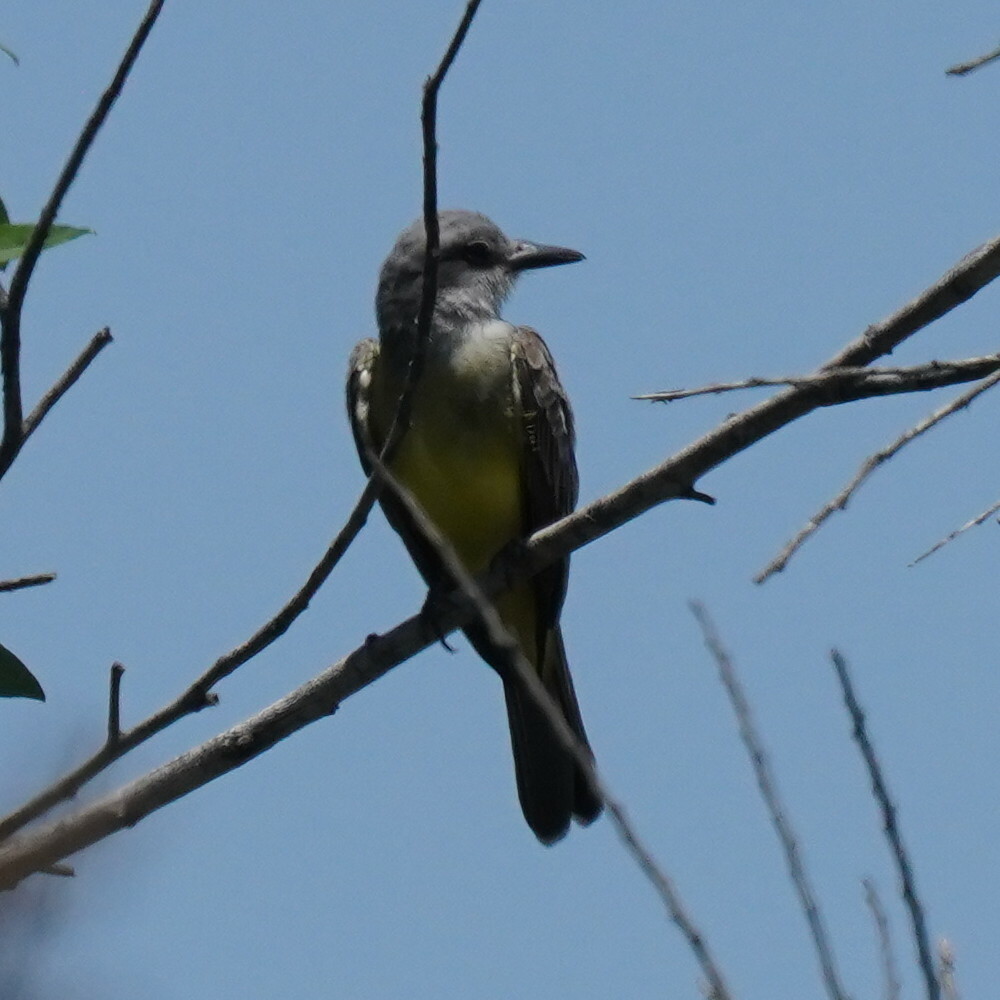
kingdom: Animalia
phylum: Chordata
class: Aves
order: Passeriformes
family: Tyrannidae
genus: Tyrannus
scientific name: Tyrannus vociferans
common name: Cassin's kingbird
